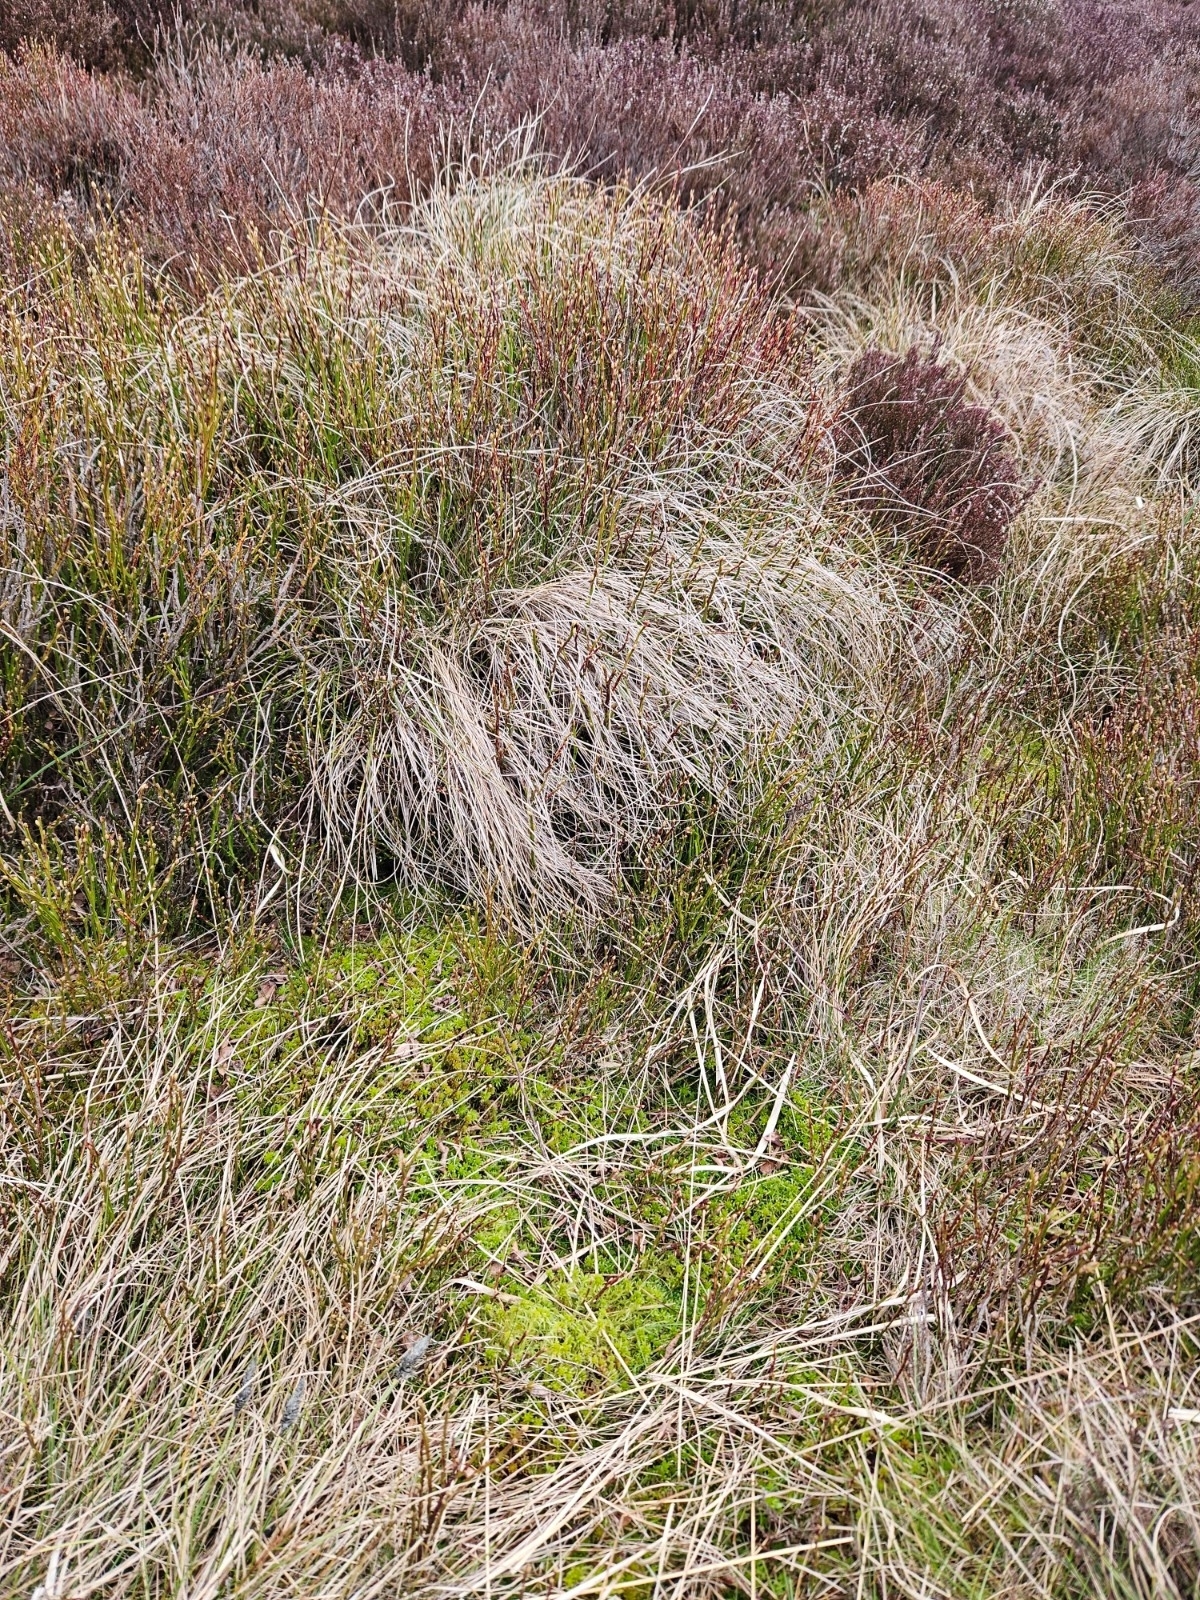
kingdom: Plantae
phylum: Bryophyta
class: Sphagnopsida
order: Sphagnales
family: Sphagnaceae
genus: Sphagnum
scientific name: Sphagnum fimbriatum
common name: Fringed peat moss
